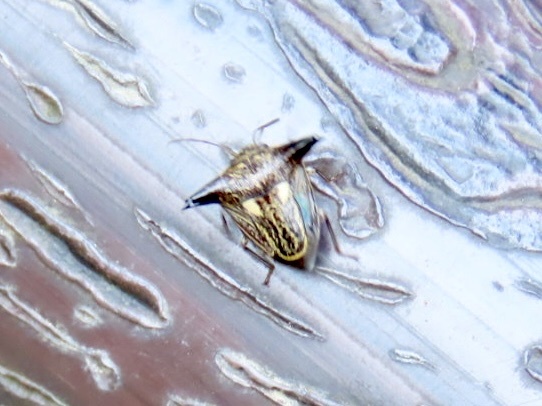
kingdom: Animalia
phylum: Arthropoda
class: Insecta
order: Hemiptera
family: Pentatomidae
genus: Alcimocoris
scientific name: Alcimocoris
